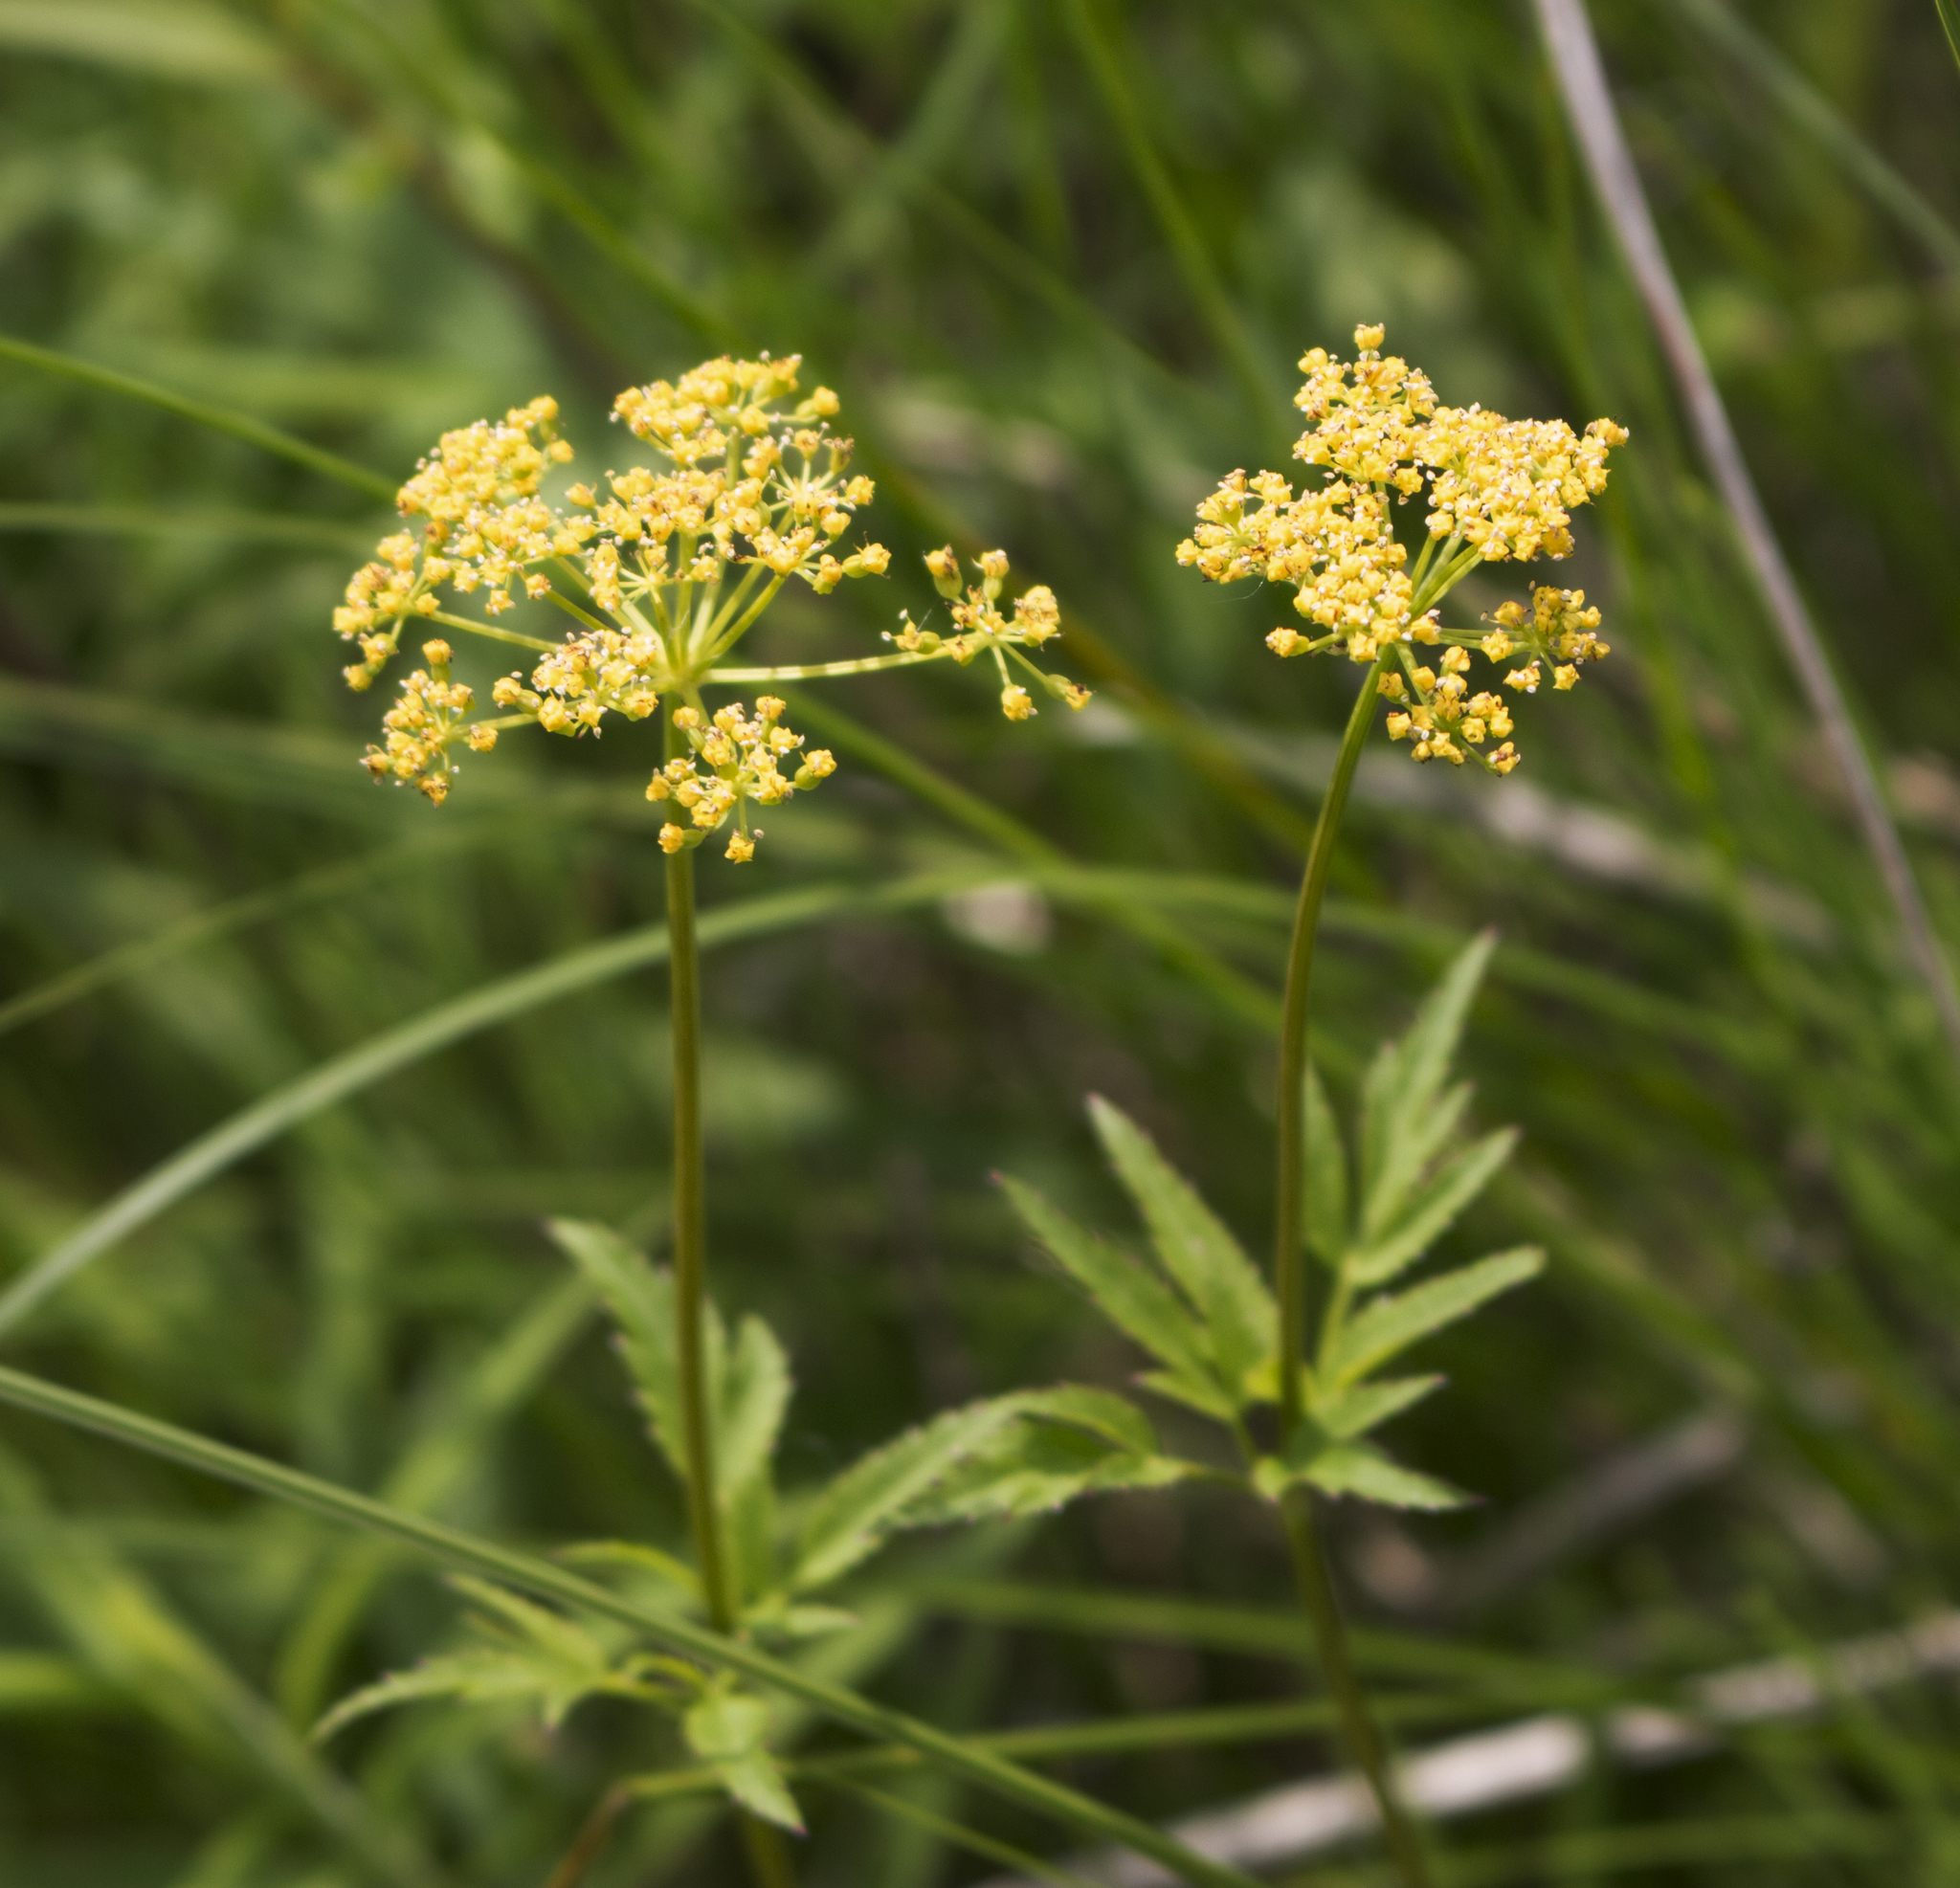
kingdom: Plantae
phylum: Tracheophyta
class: Magnoliopsida
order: Apiales
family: Apiaceae
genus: Zizia
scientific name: Zizia aurea
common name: Golden alexanders
